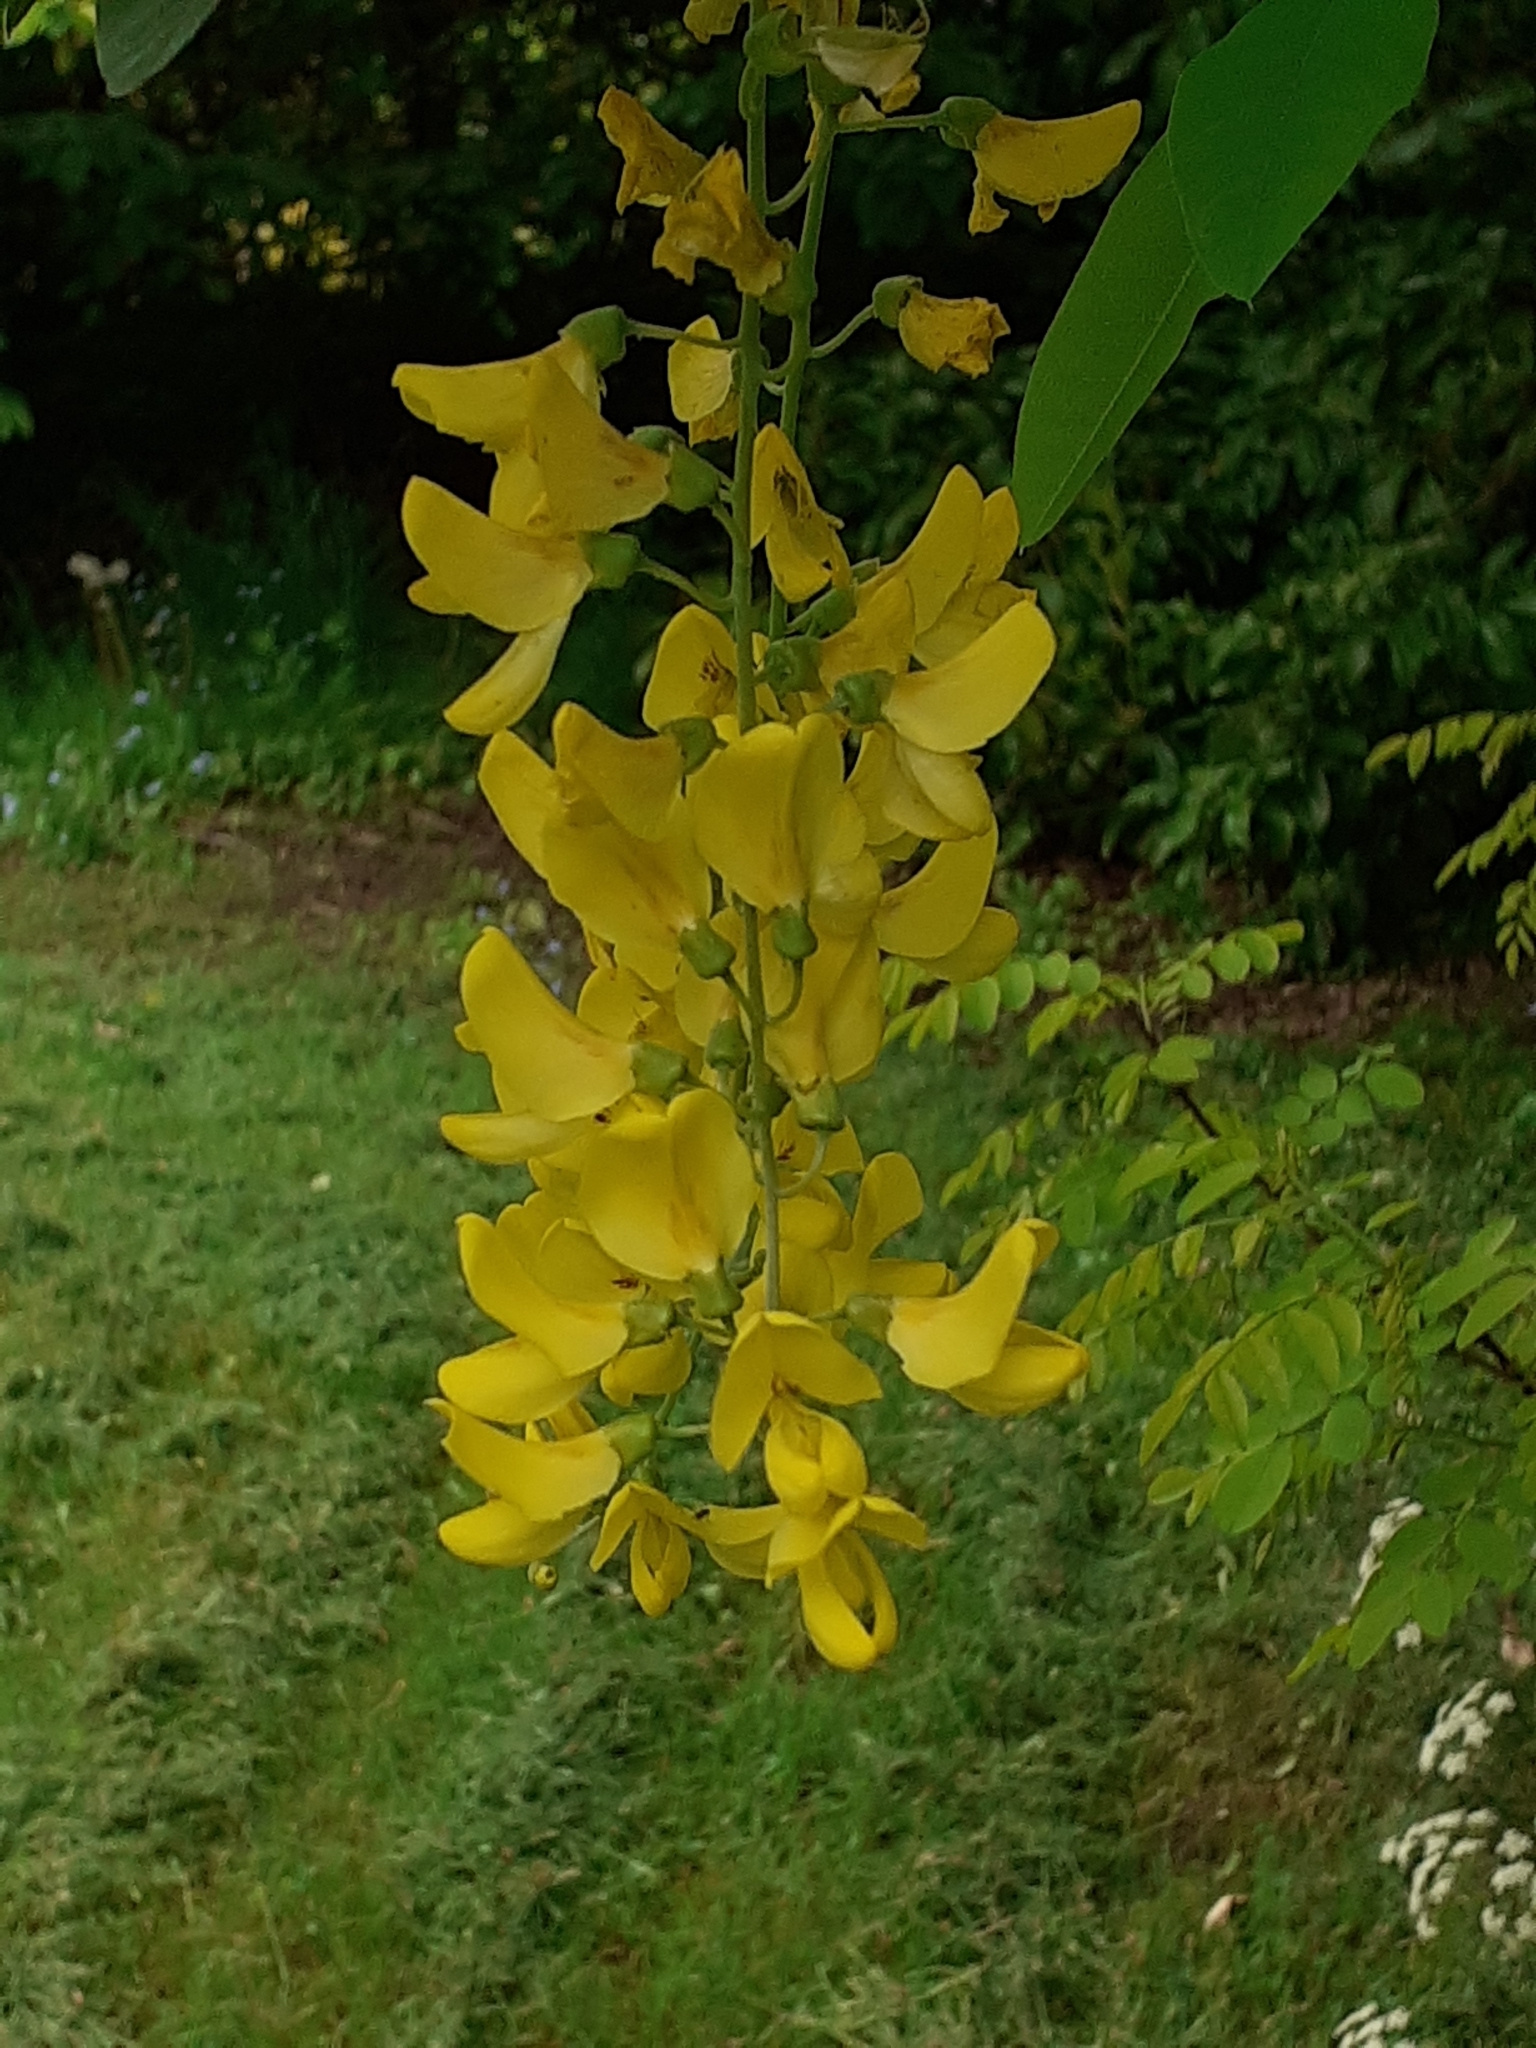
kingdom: Plantae
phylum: Tracheophyta
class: Magnoliopsida
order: Fabales
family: Fabaceae
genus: Laburnum
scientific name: Laburnum anagyroides
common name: Laburnum
